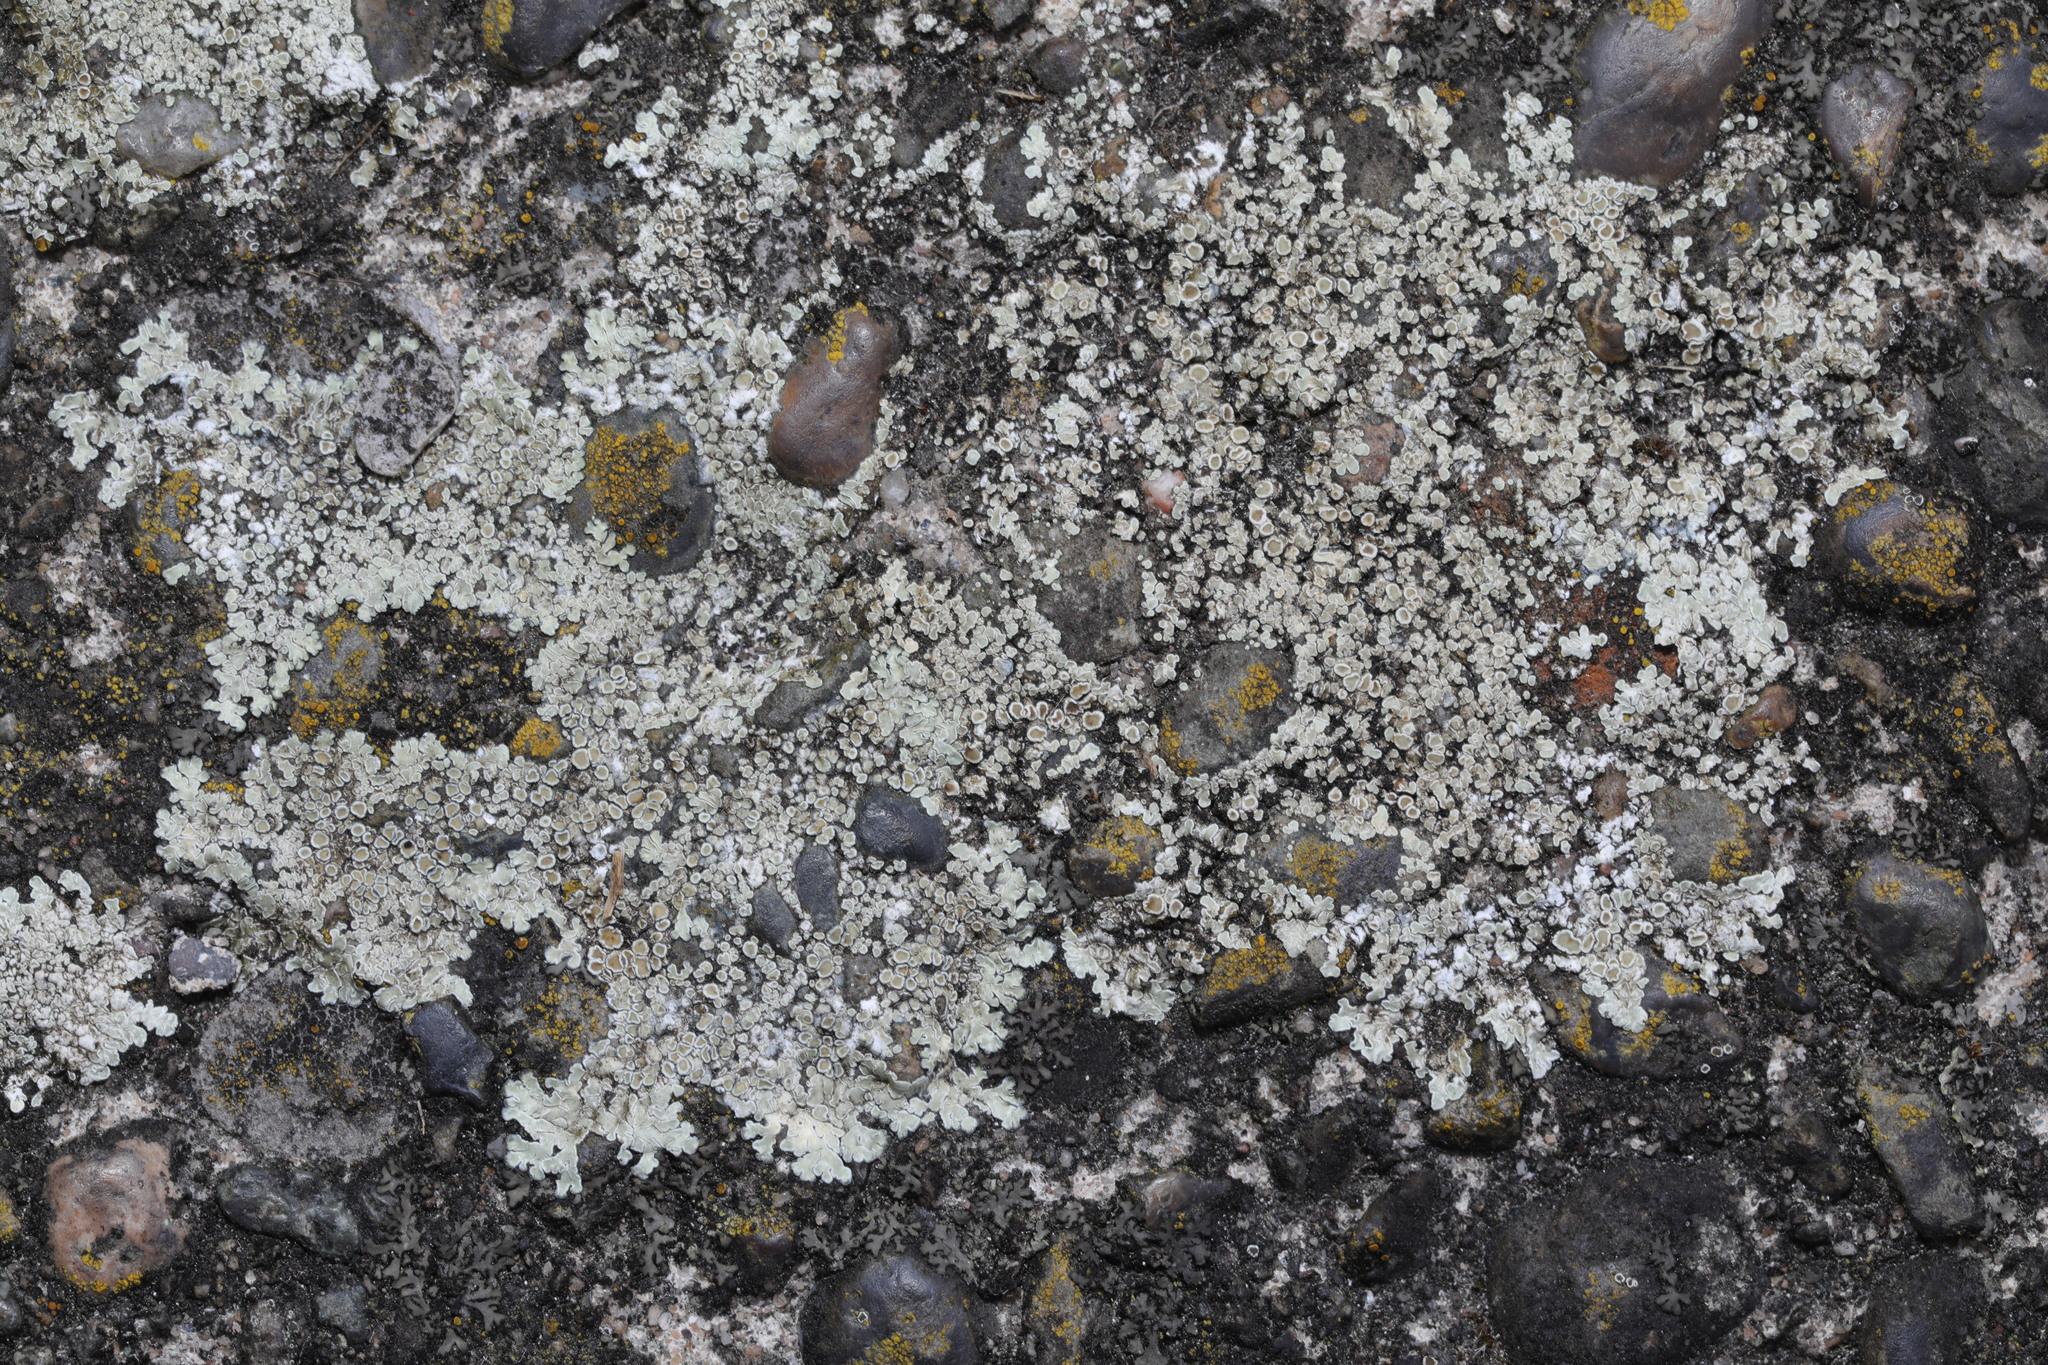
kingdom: Fungi
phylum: Ascomycota
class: Lecanoromycetes
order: Lecanorales
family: Lecanoraceae
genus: Protoparmeliopsis
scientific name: Protoparmeliopsis muralis
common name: Stonewall rim lichen
